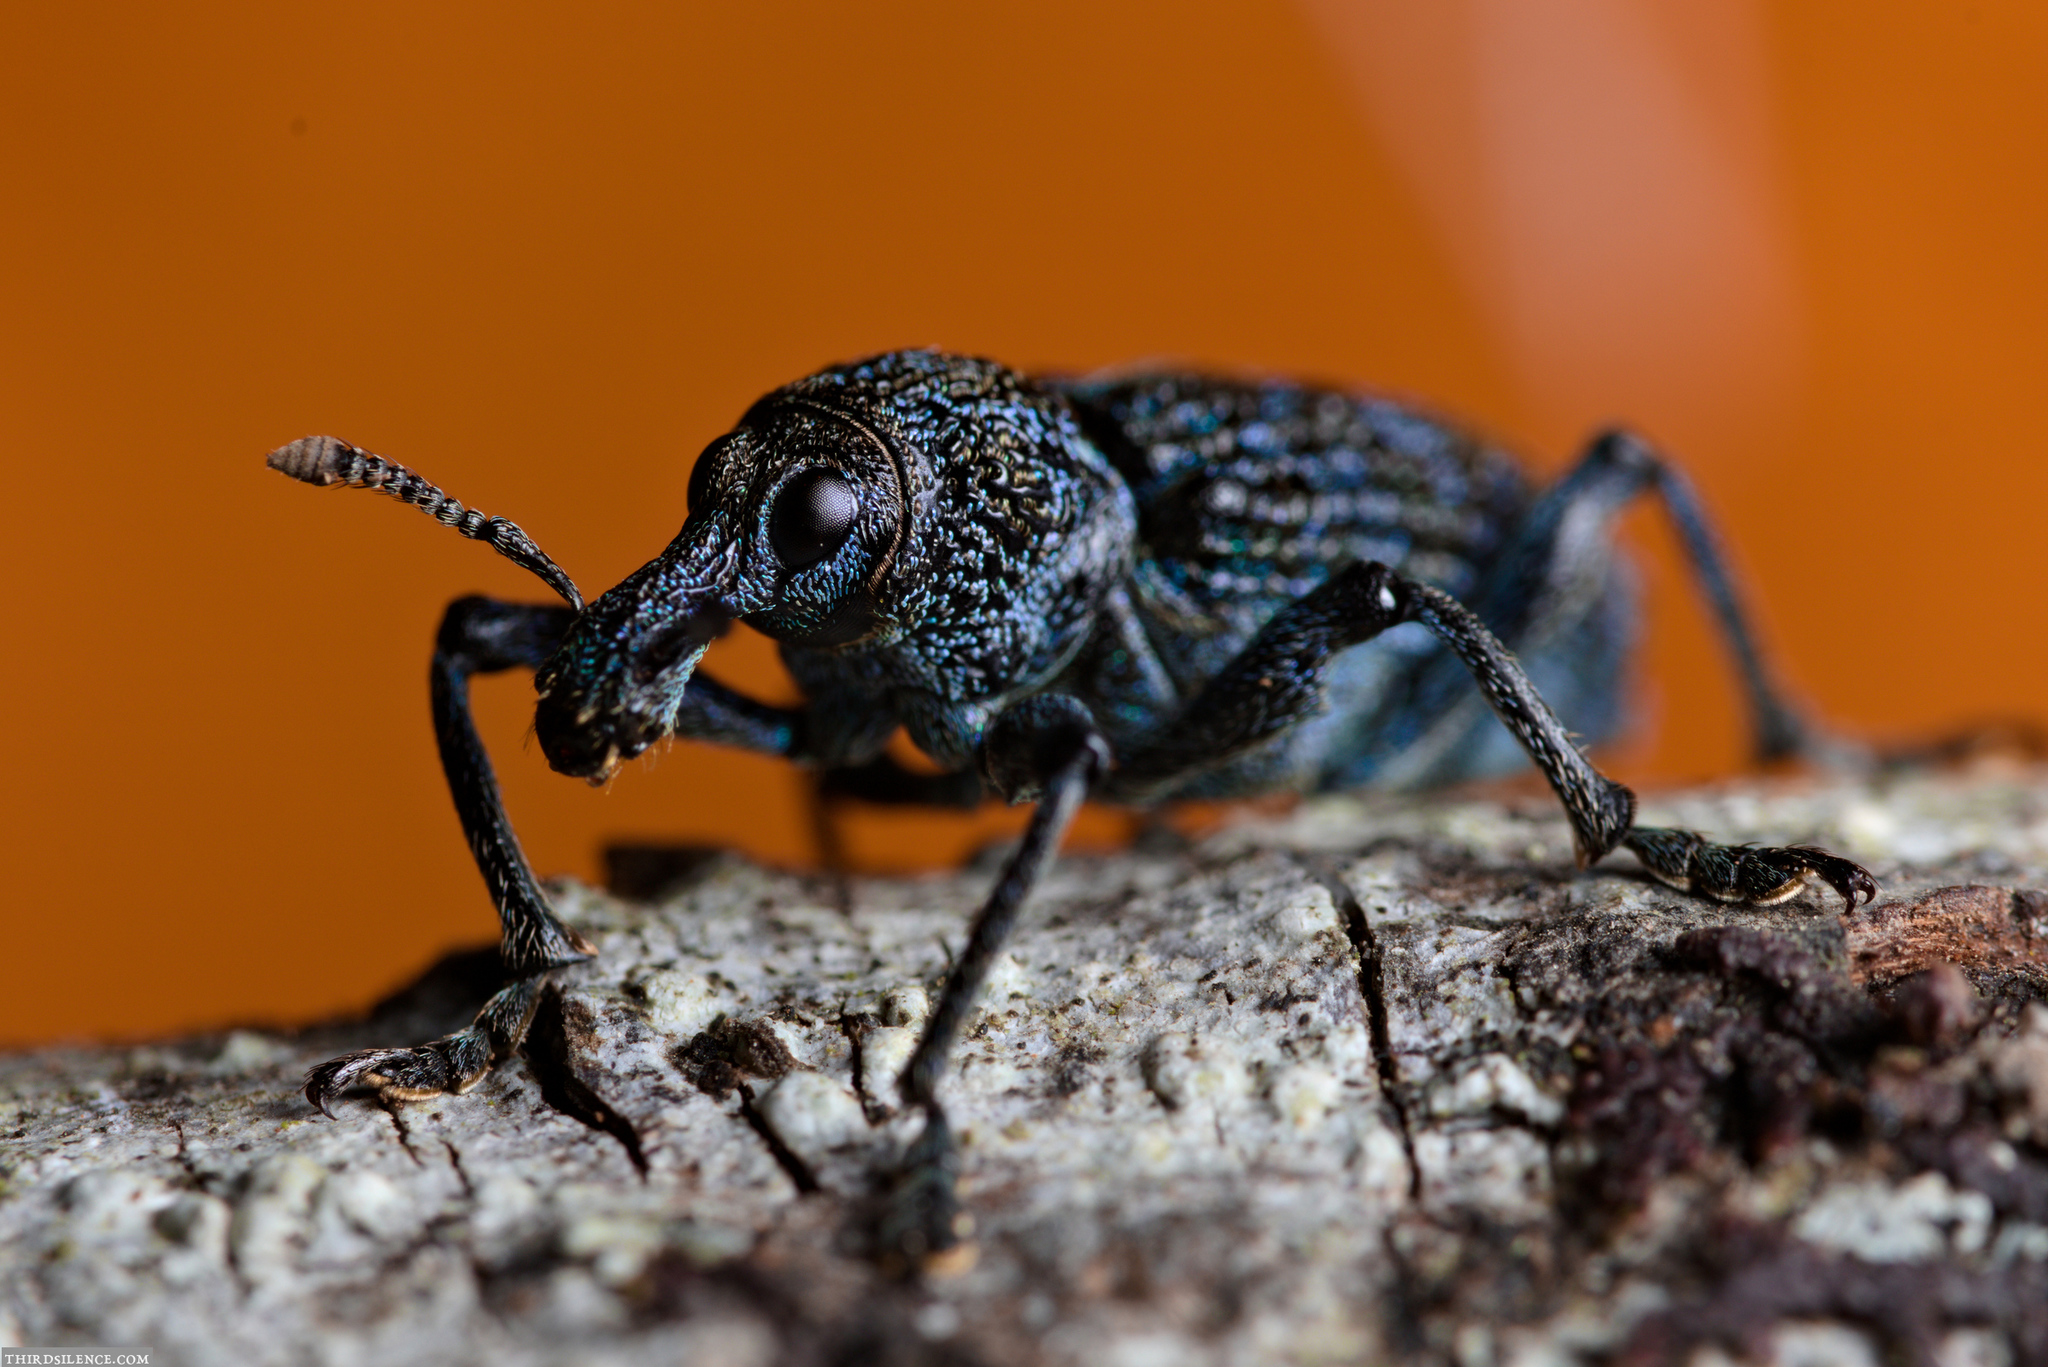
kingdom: Animalia
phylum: Arthropoda
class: Insecta
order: Coleoptera
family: Curculionidae
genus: Chrysolopus
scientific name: Chrysolopus spectabilis
